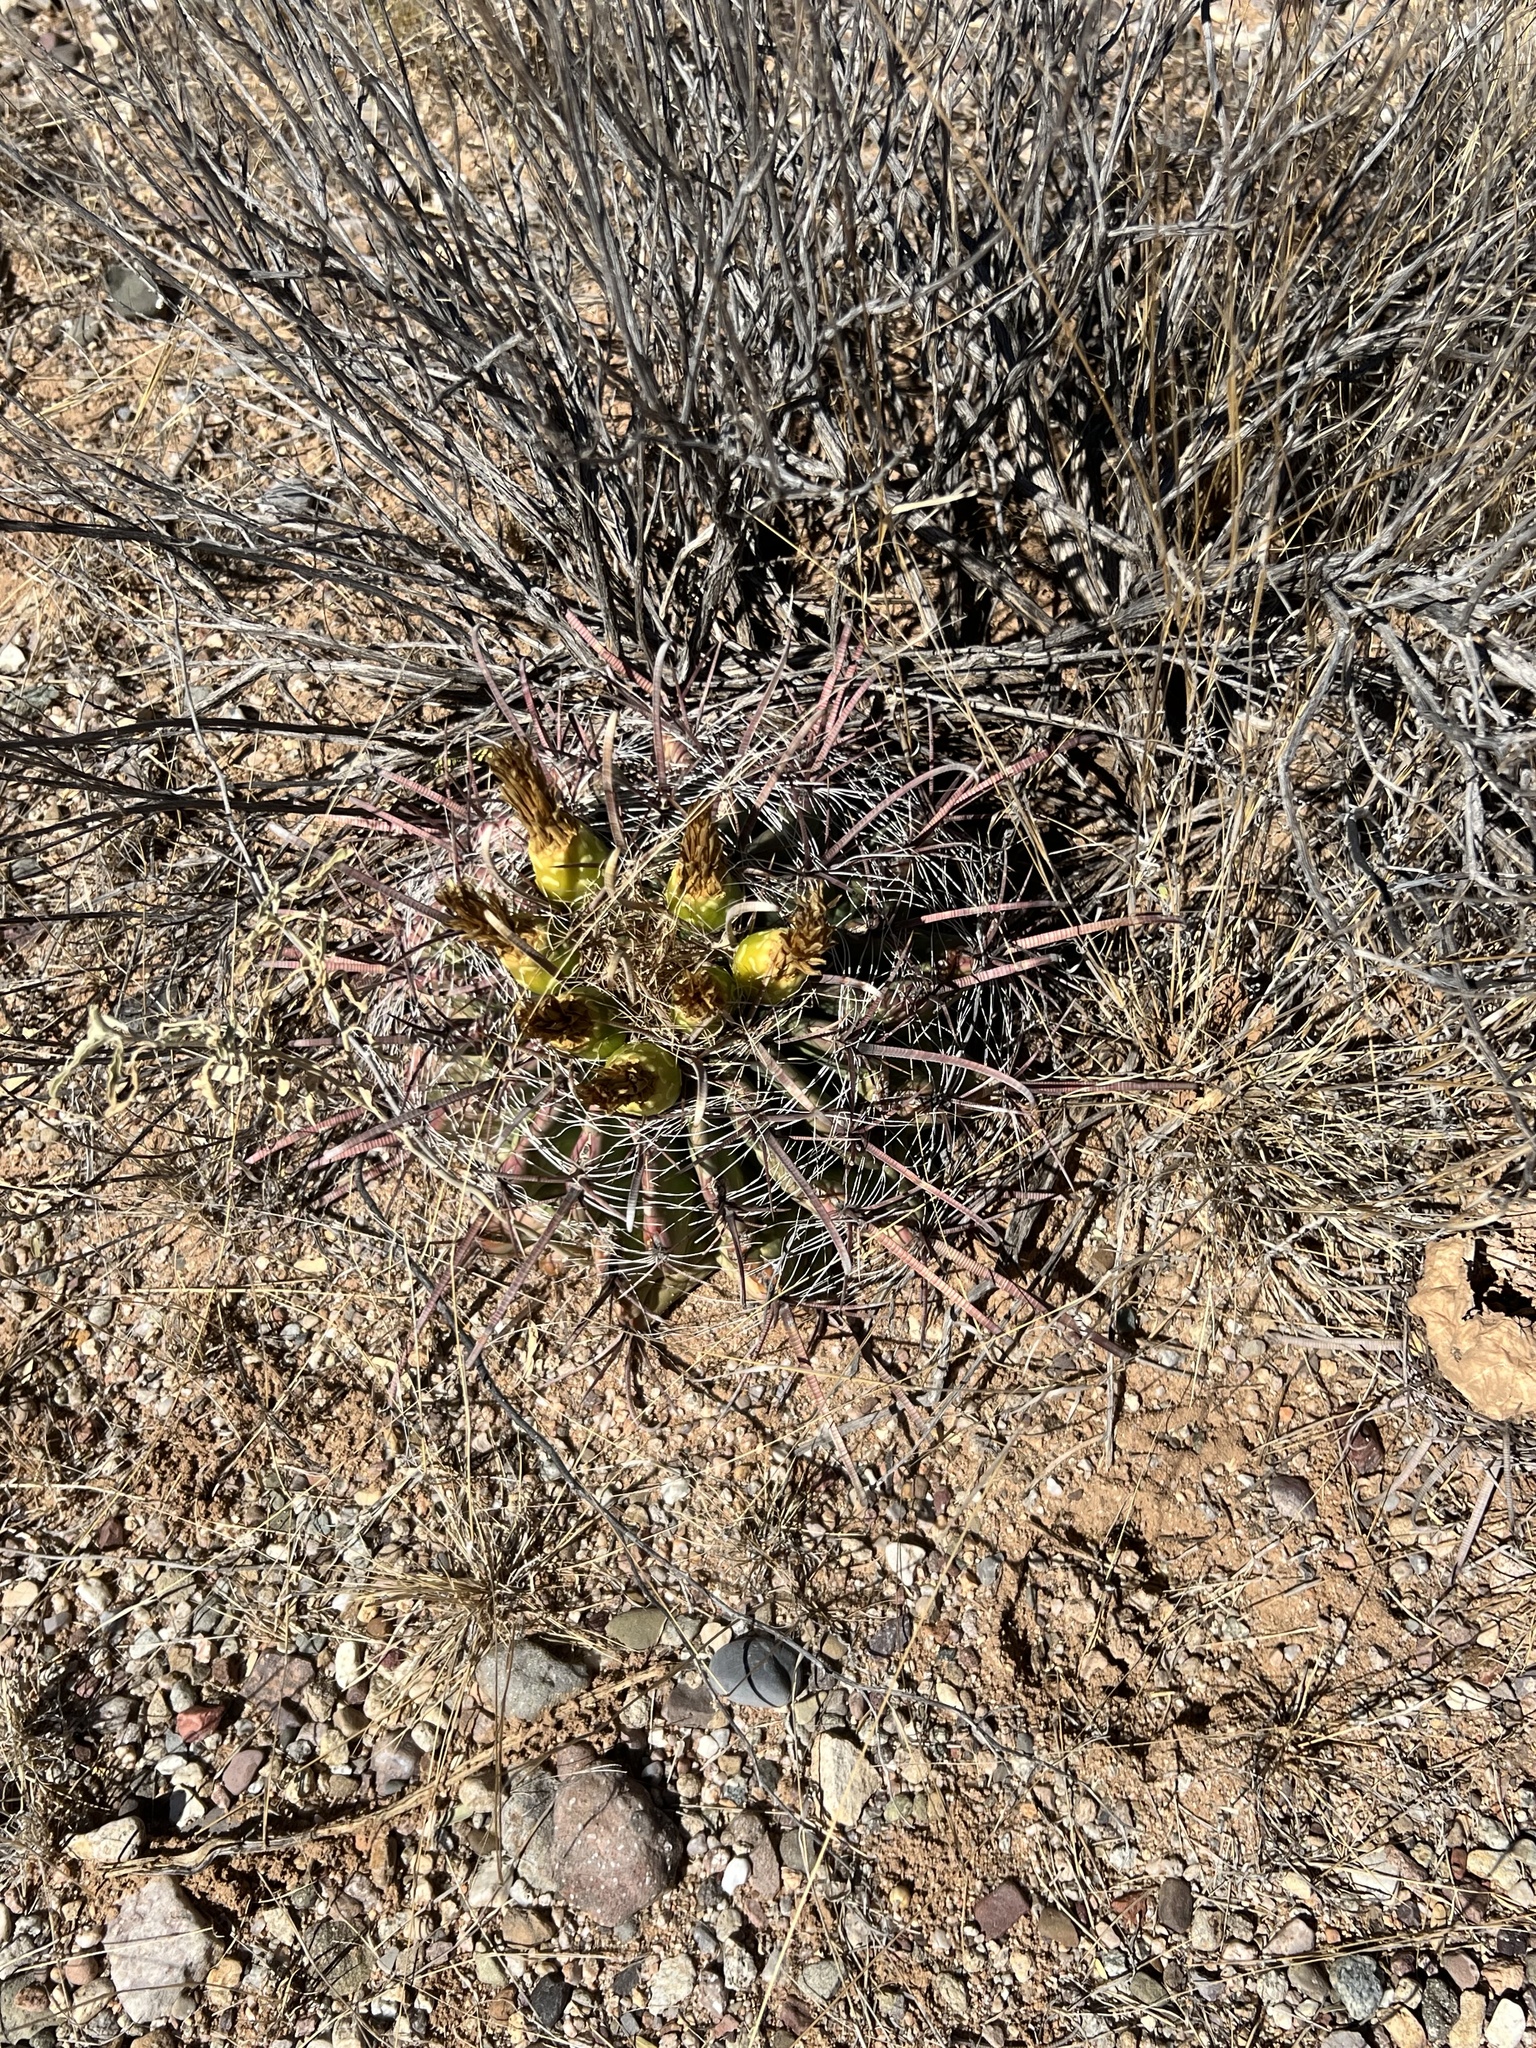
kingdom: Plantae
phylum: Tracheophyta
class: Magnoliopsida
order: Caryophyllales
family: Cactaceae
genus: Ferocactus
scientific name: Ferocactus wislizeni
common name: Candy barrel cactus
